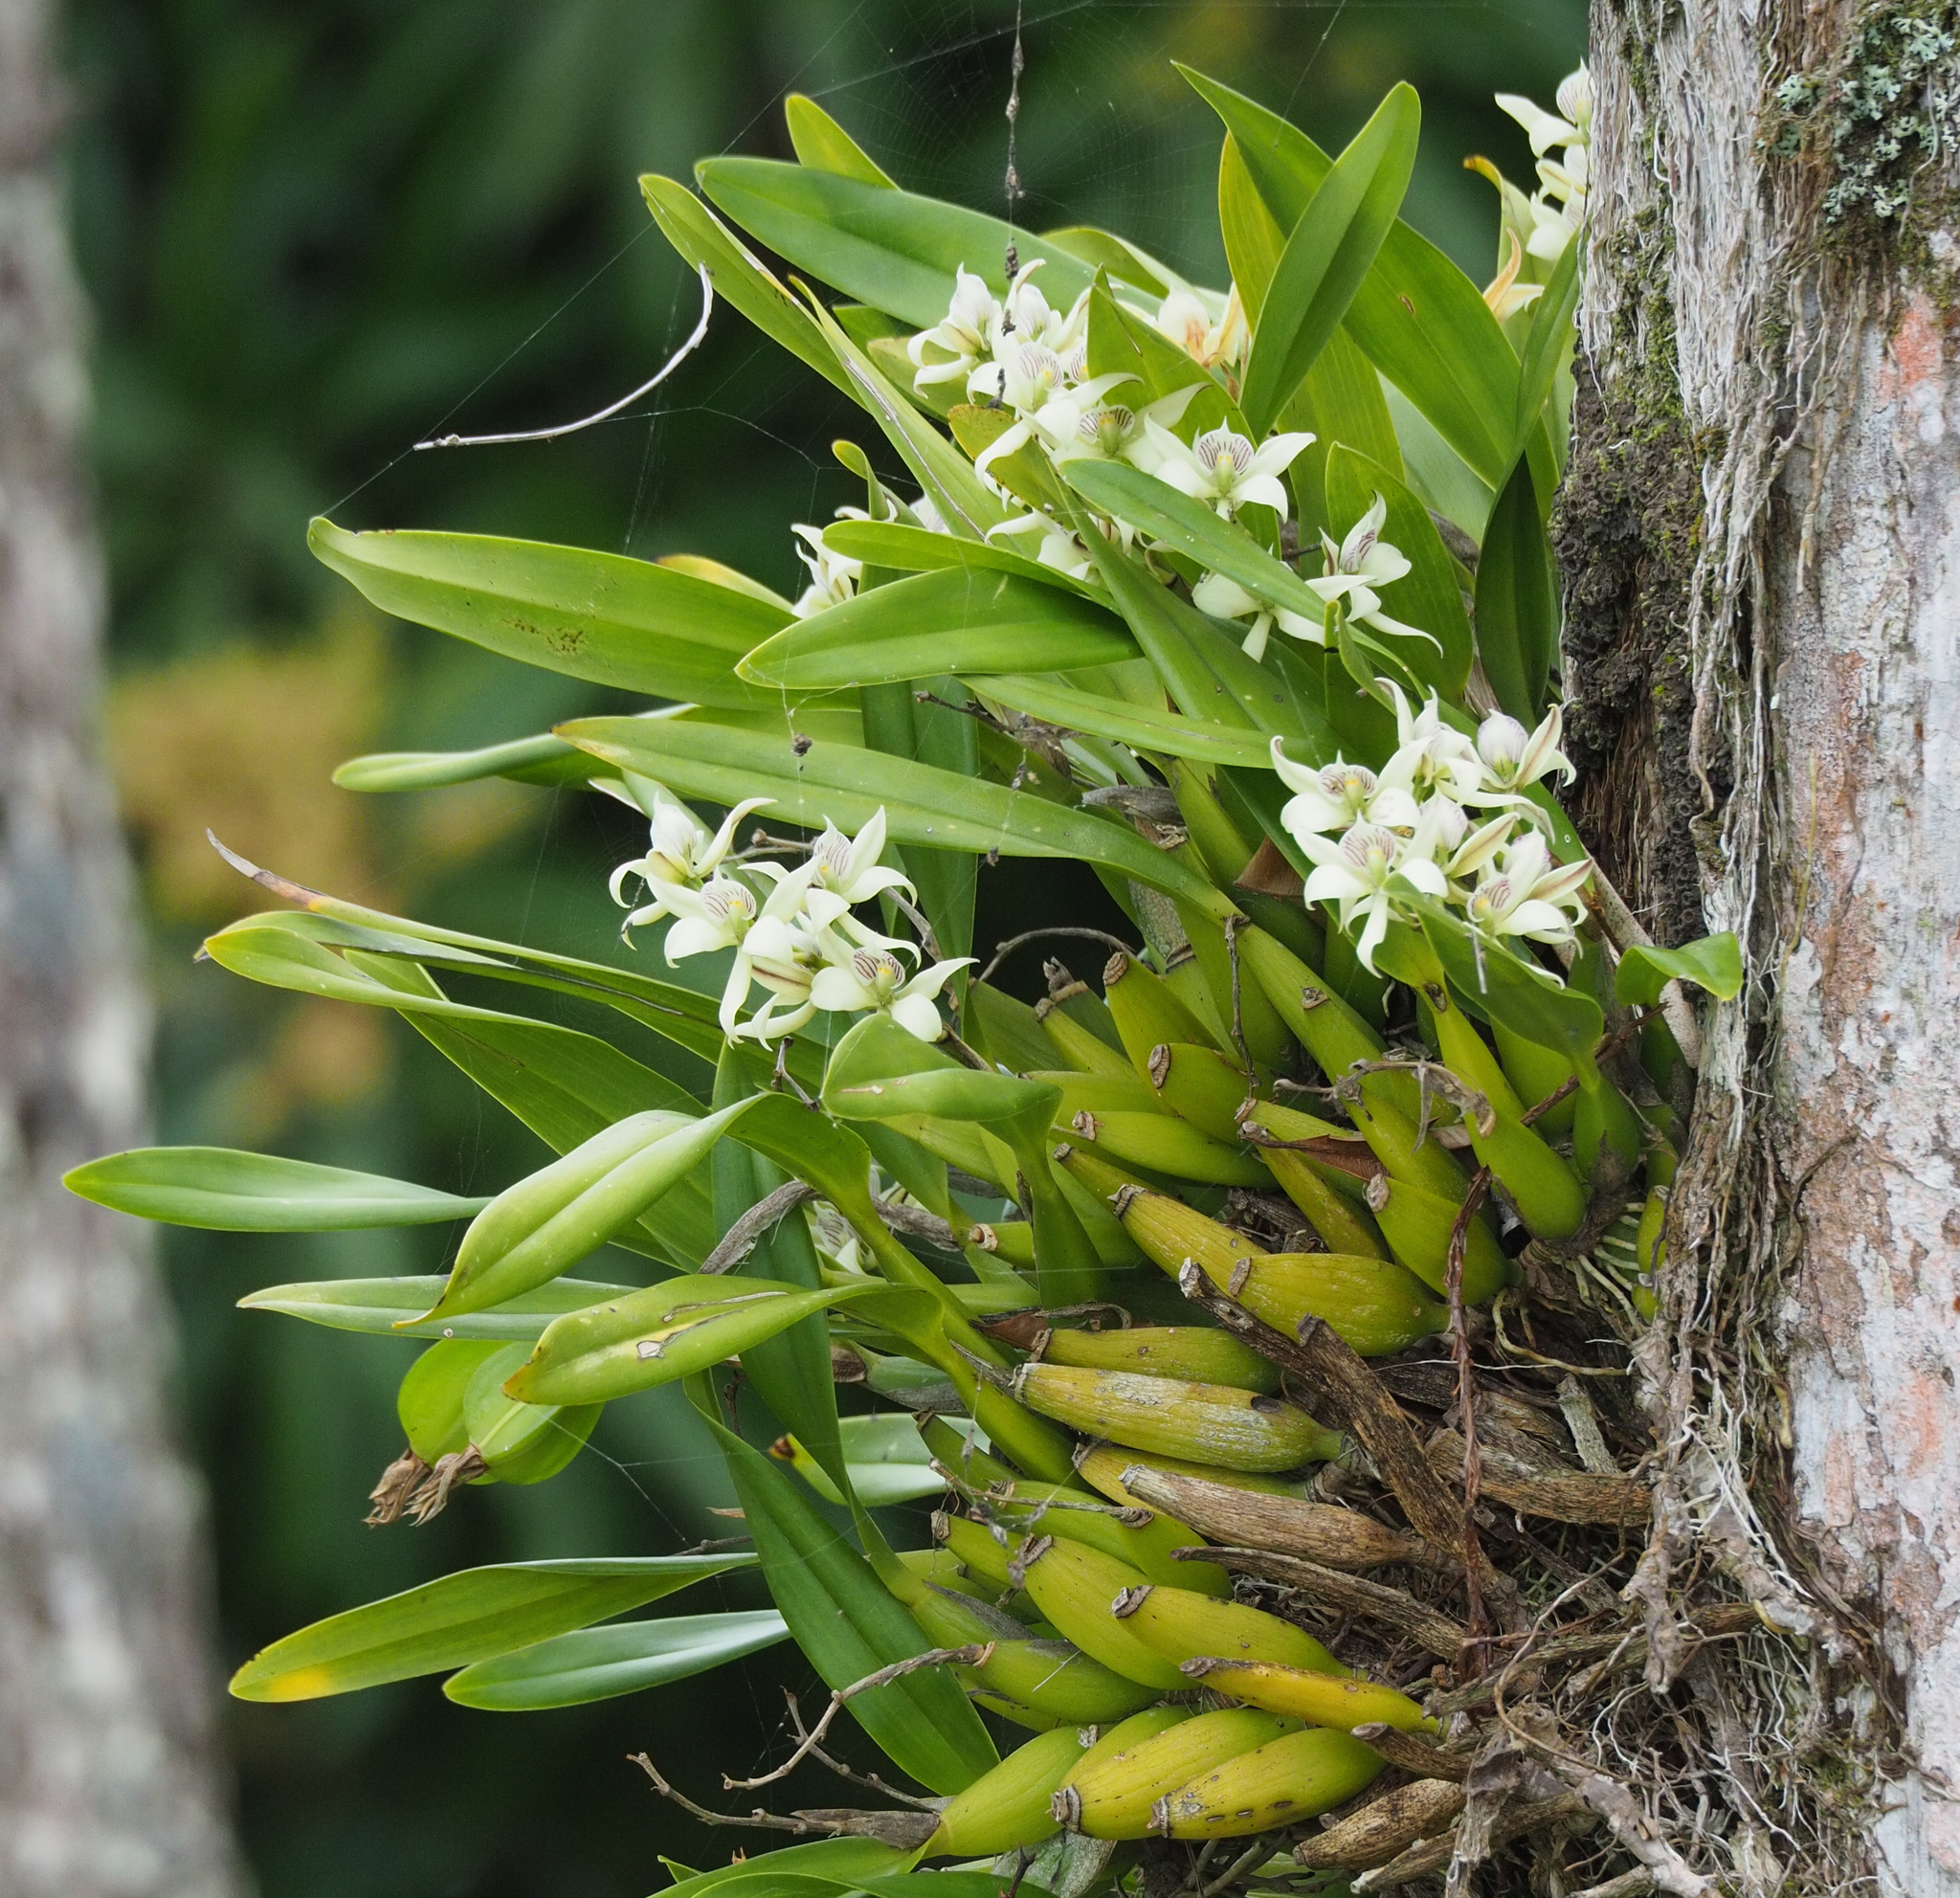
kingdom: Plantae
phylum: Tracheophyta
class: Liliopsida
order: Asparagales
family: Orchidaceae
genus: Prosthechea
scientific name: Prosthechea fragrans
